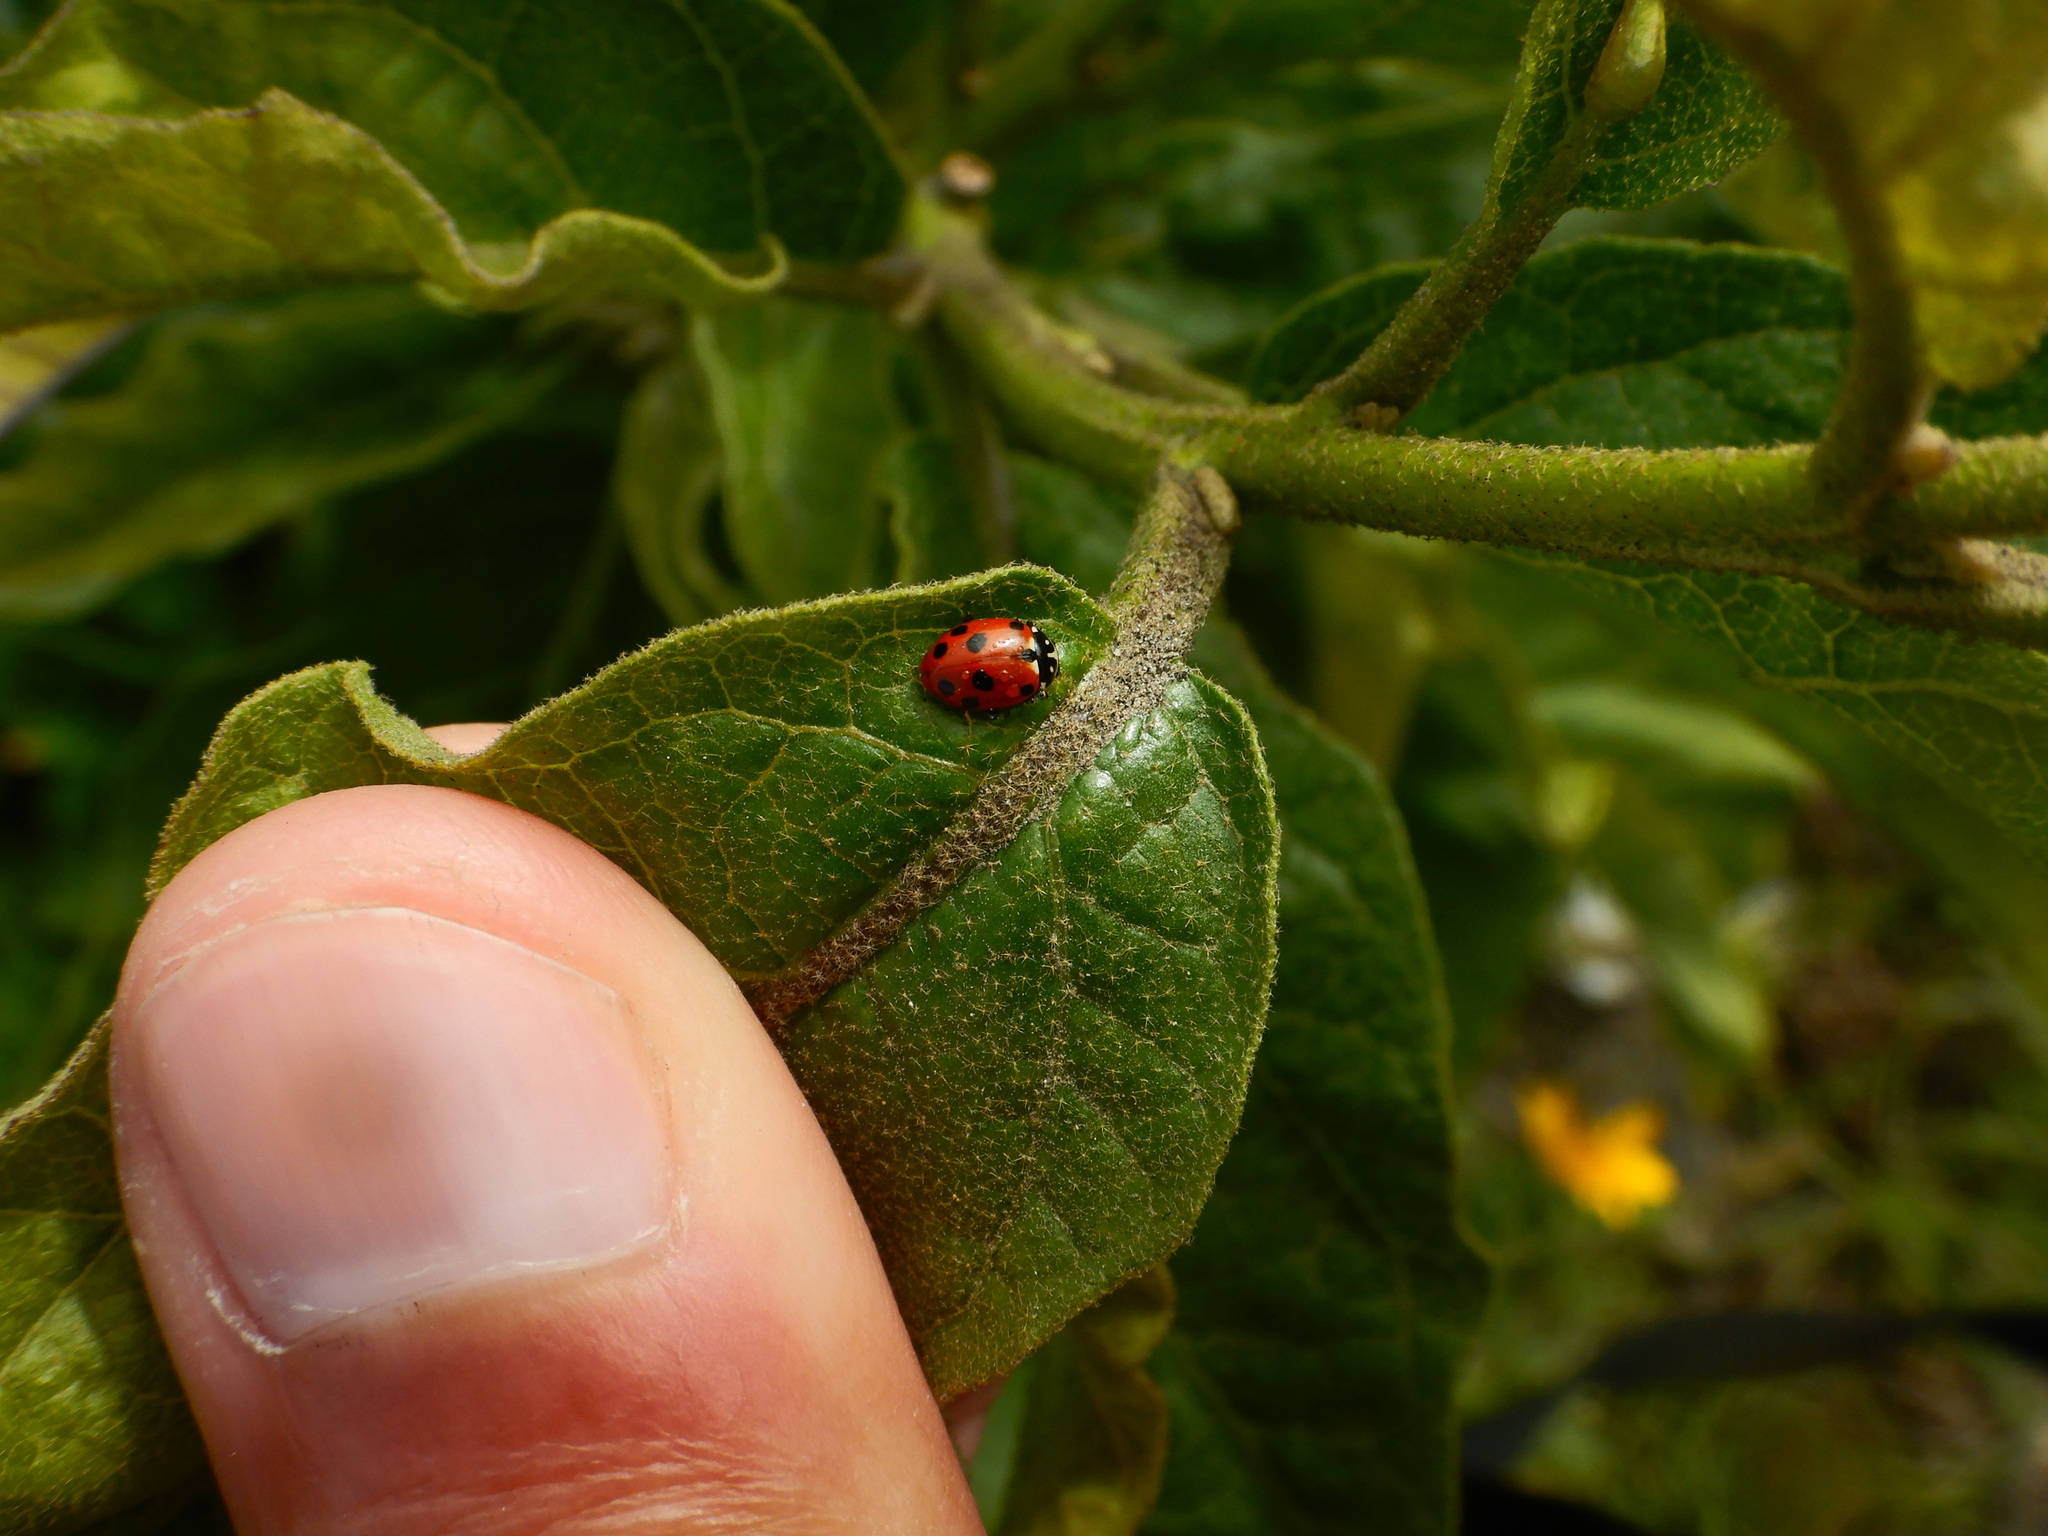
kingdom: Animalia
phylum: Arthropoda
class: Insecta
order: Coleoptera
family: Coccinellidae
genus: Hippodamia
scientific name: Hippodamia variegata
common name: Ladybird beetle
